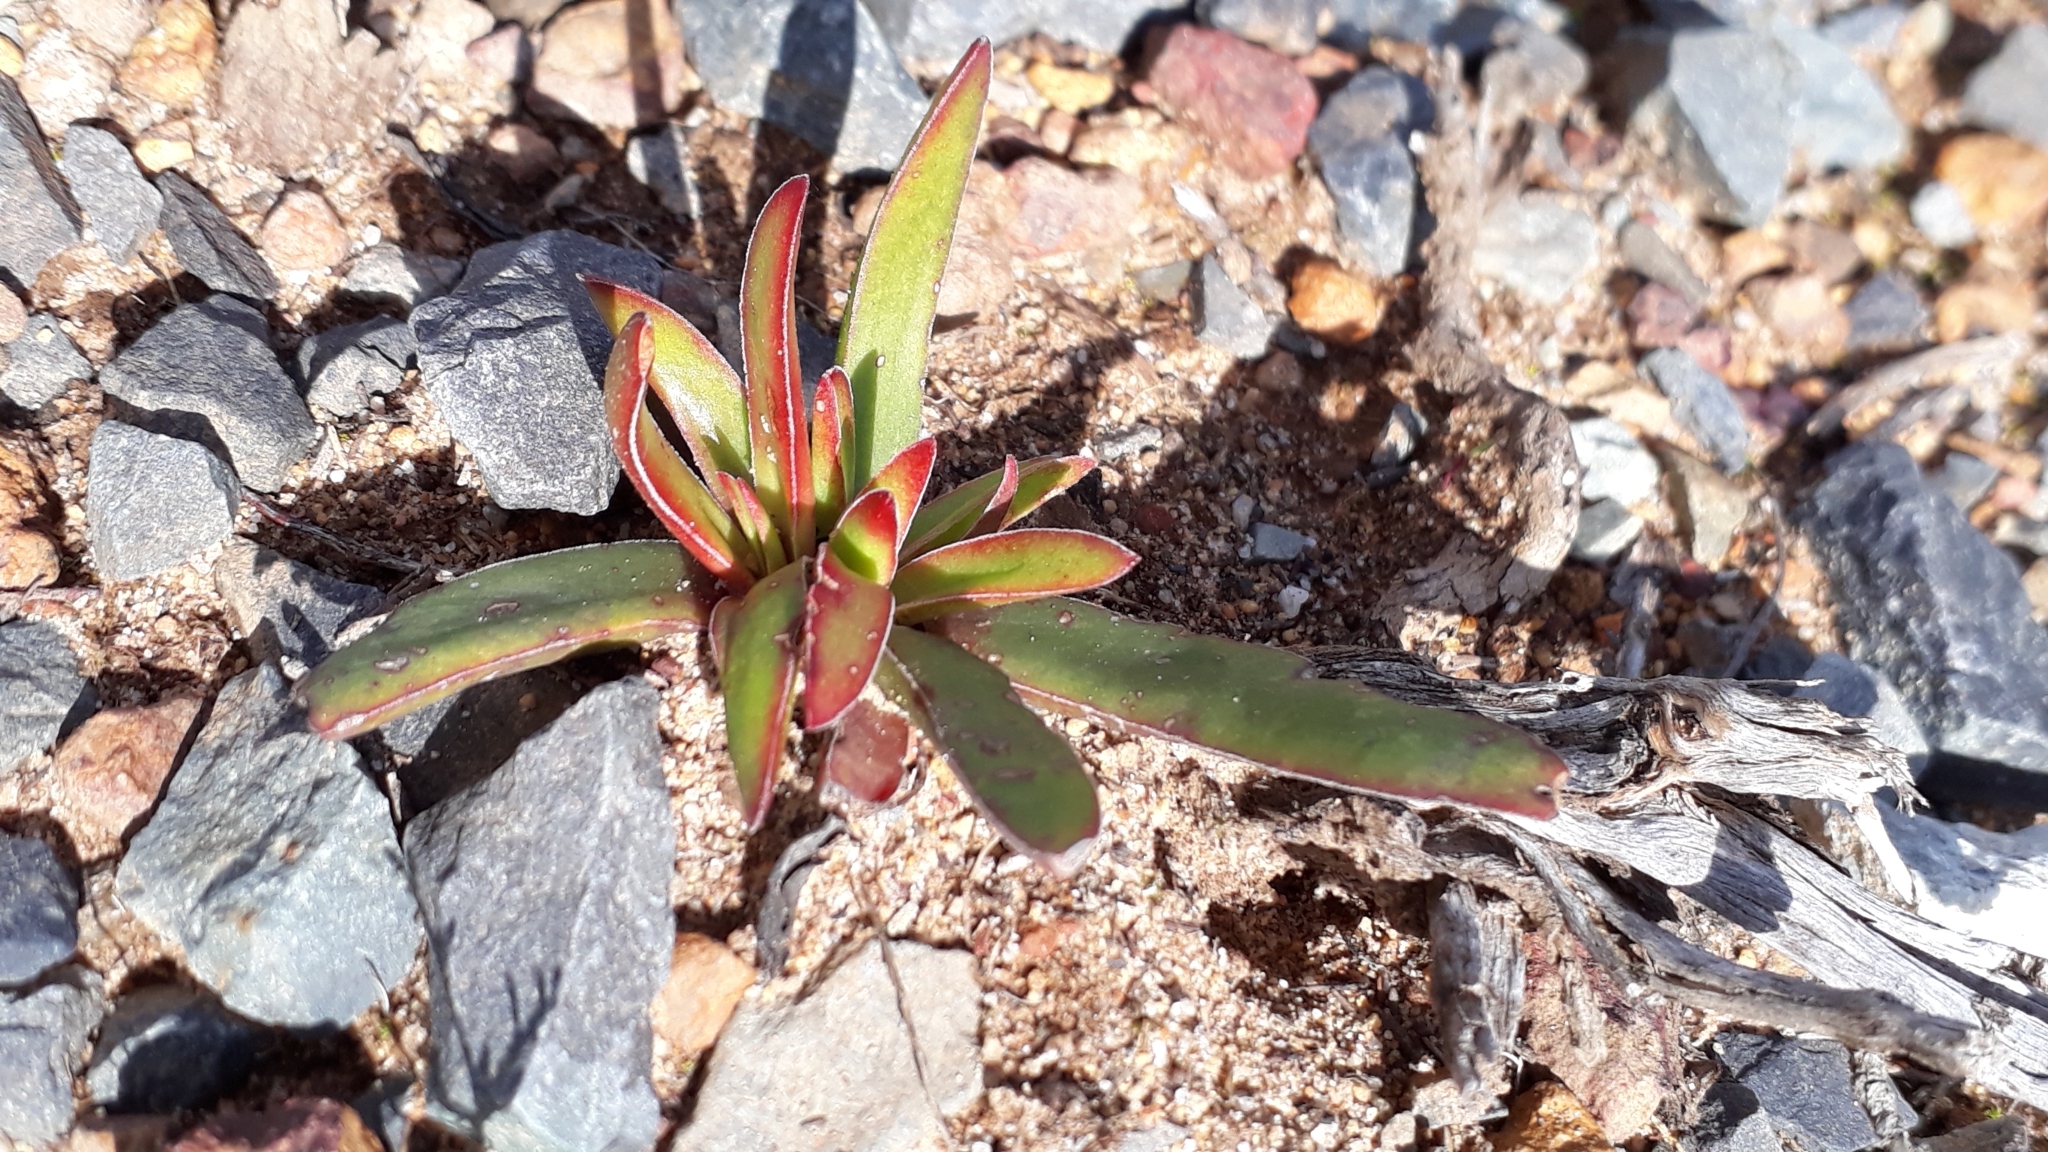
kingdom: Plantae
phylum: Tracheophyta
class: Magnoliopsida
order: Saxifragales
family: Crassulaceae
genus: Crassula
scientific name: Crassula nudicaulis
